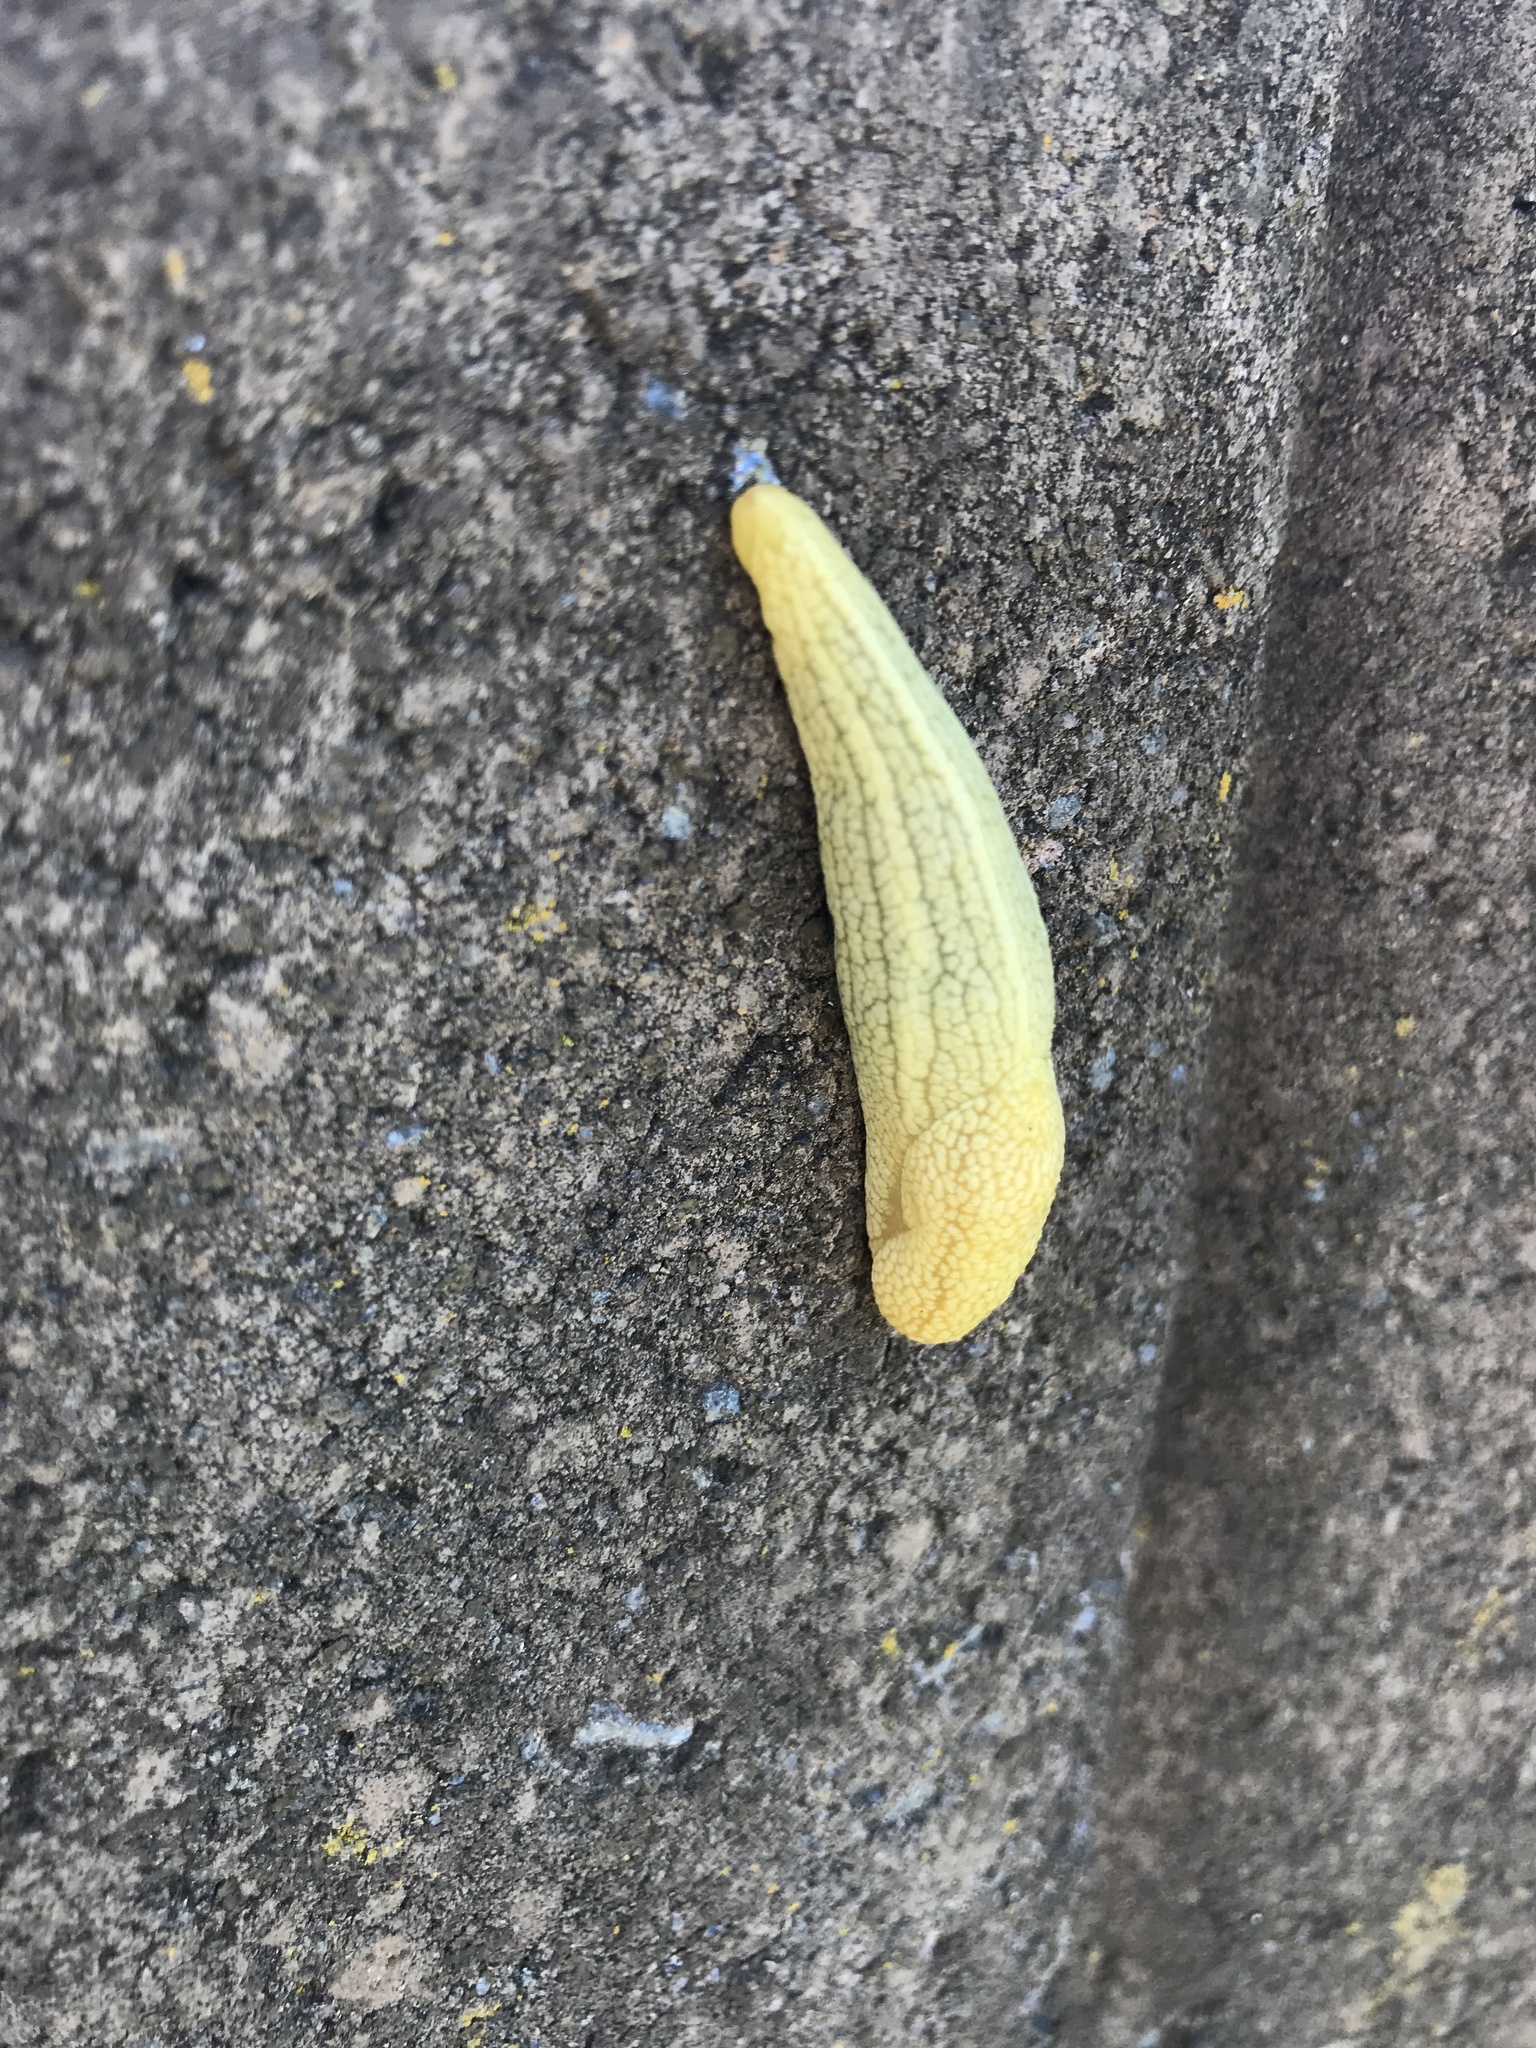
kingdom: Animalia
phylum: Mollusca
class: Gastropoda
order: Stylommatophora
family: Urocyclidae
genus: Elisolimax
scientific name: Elisolimax flavescens
